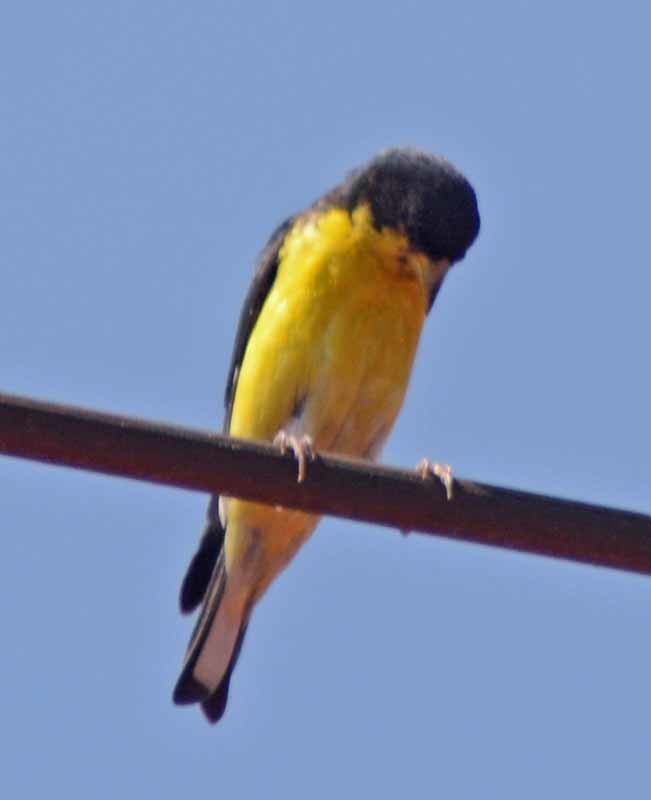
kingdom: Animalia
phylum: Chordata
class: Aves
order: Passeriformes
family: Fringillidae
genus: Spinus
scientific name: Spinus psaltria
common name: Lesser goldfinch
